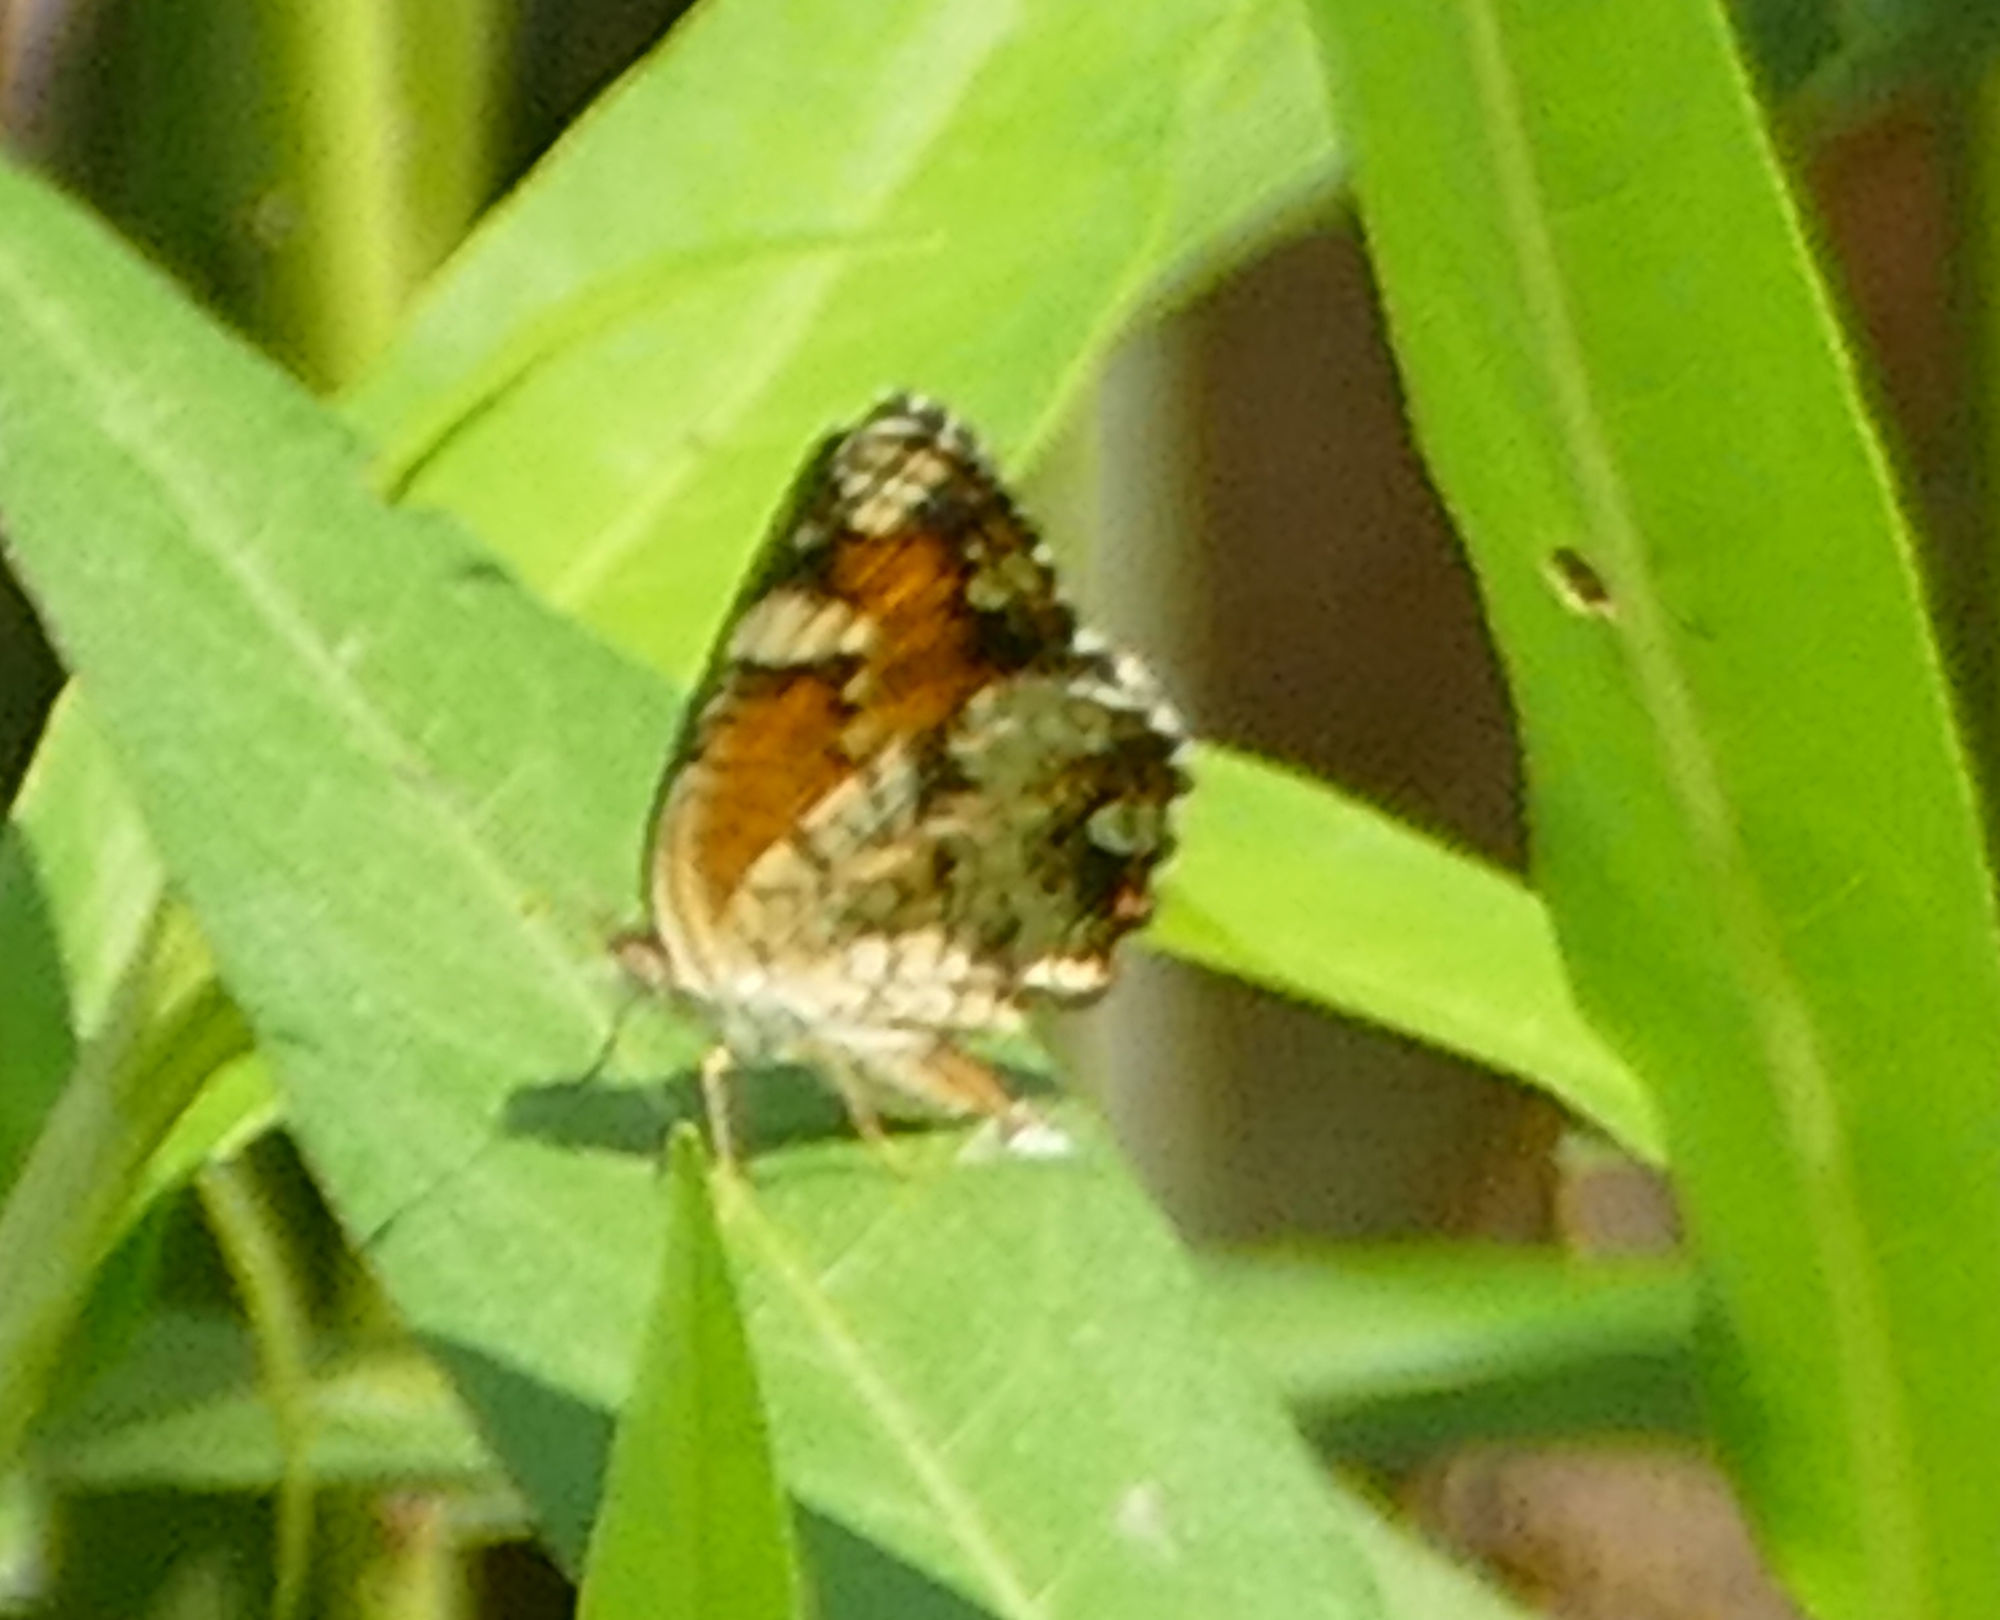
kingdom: Animalia
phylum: Arthropoda
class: Insecta
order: Lepidoptera
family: Nymphalidae
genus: Phyciodes
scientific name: Phyciodes phaon
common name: Phaon crescent
